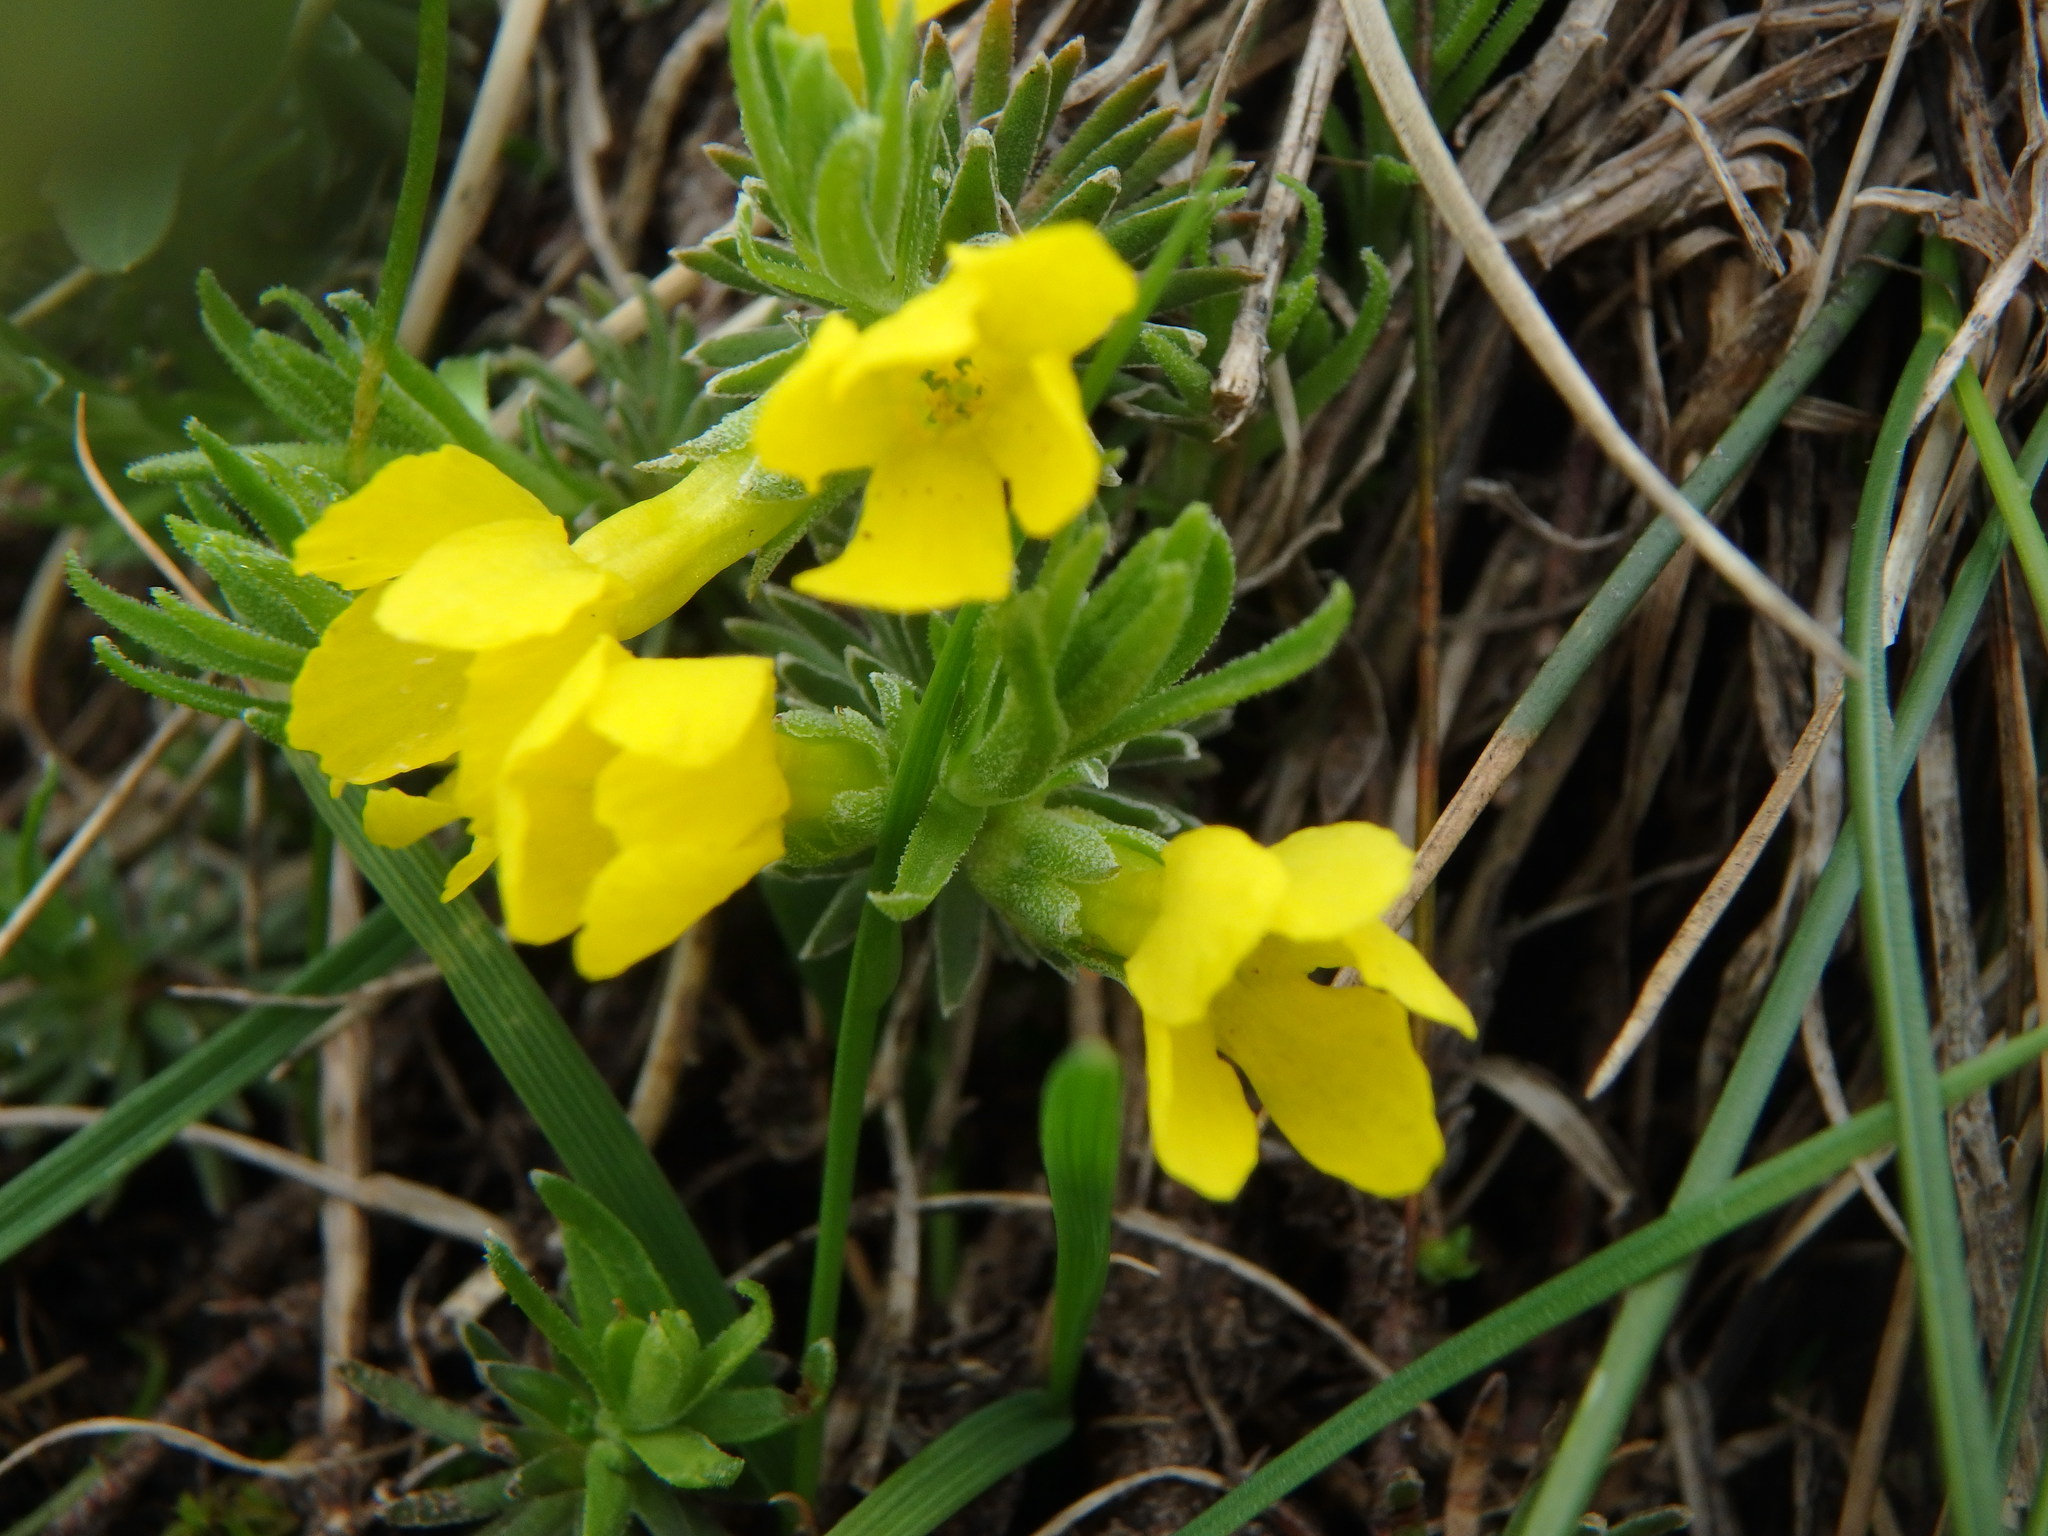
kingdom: Plantae
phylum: Tracheophyta
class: Magnoliopsida
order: Ericales
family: Primulaceae
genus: Androsace
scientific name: Androsace vitaliana
